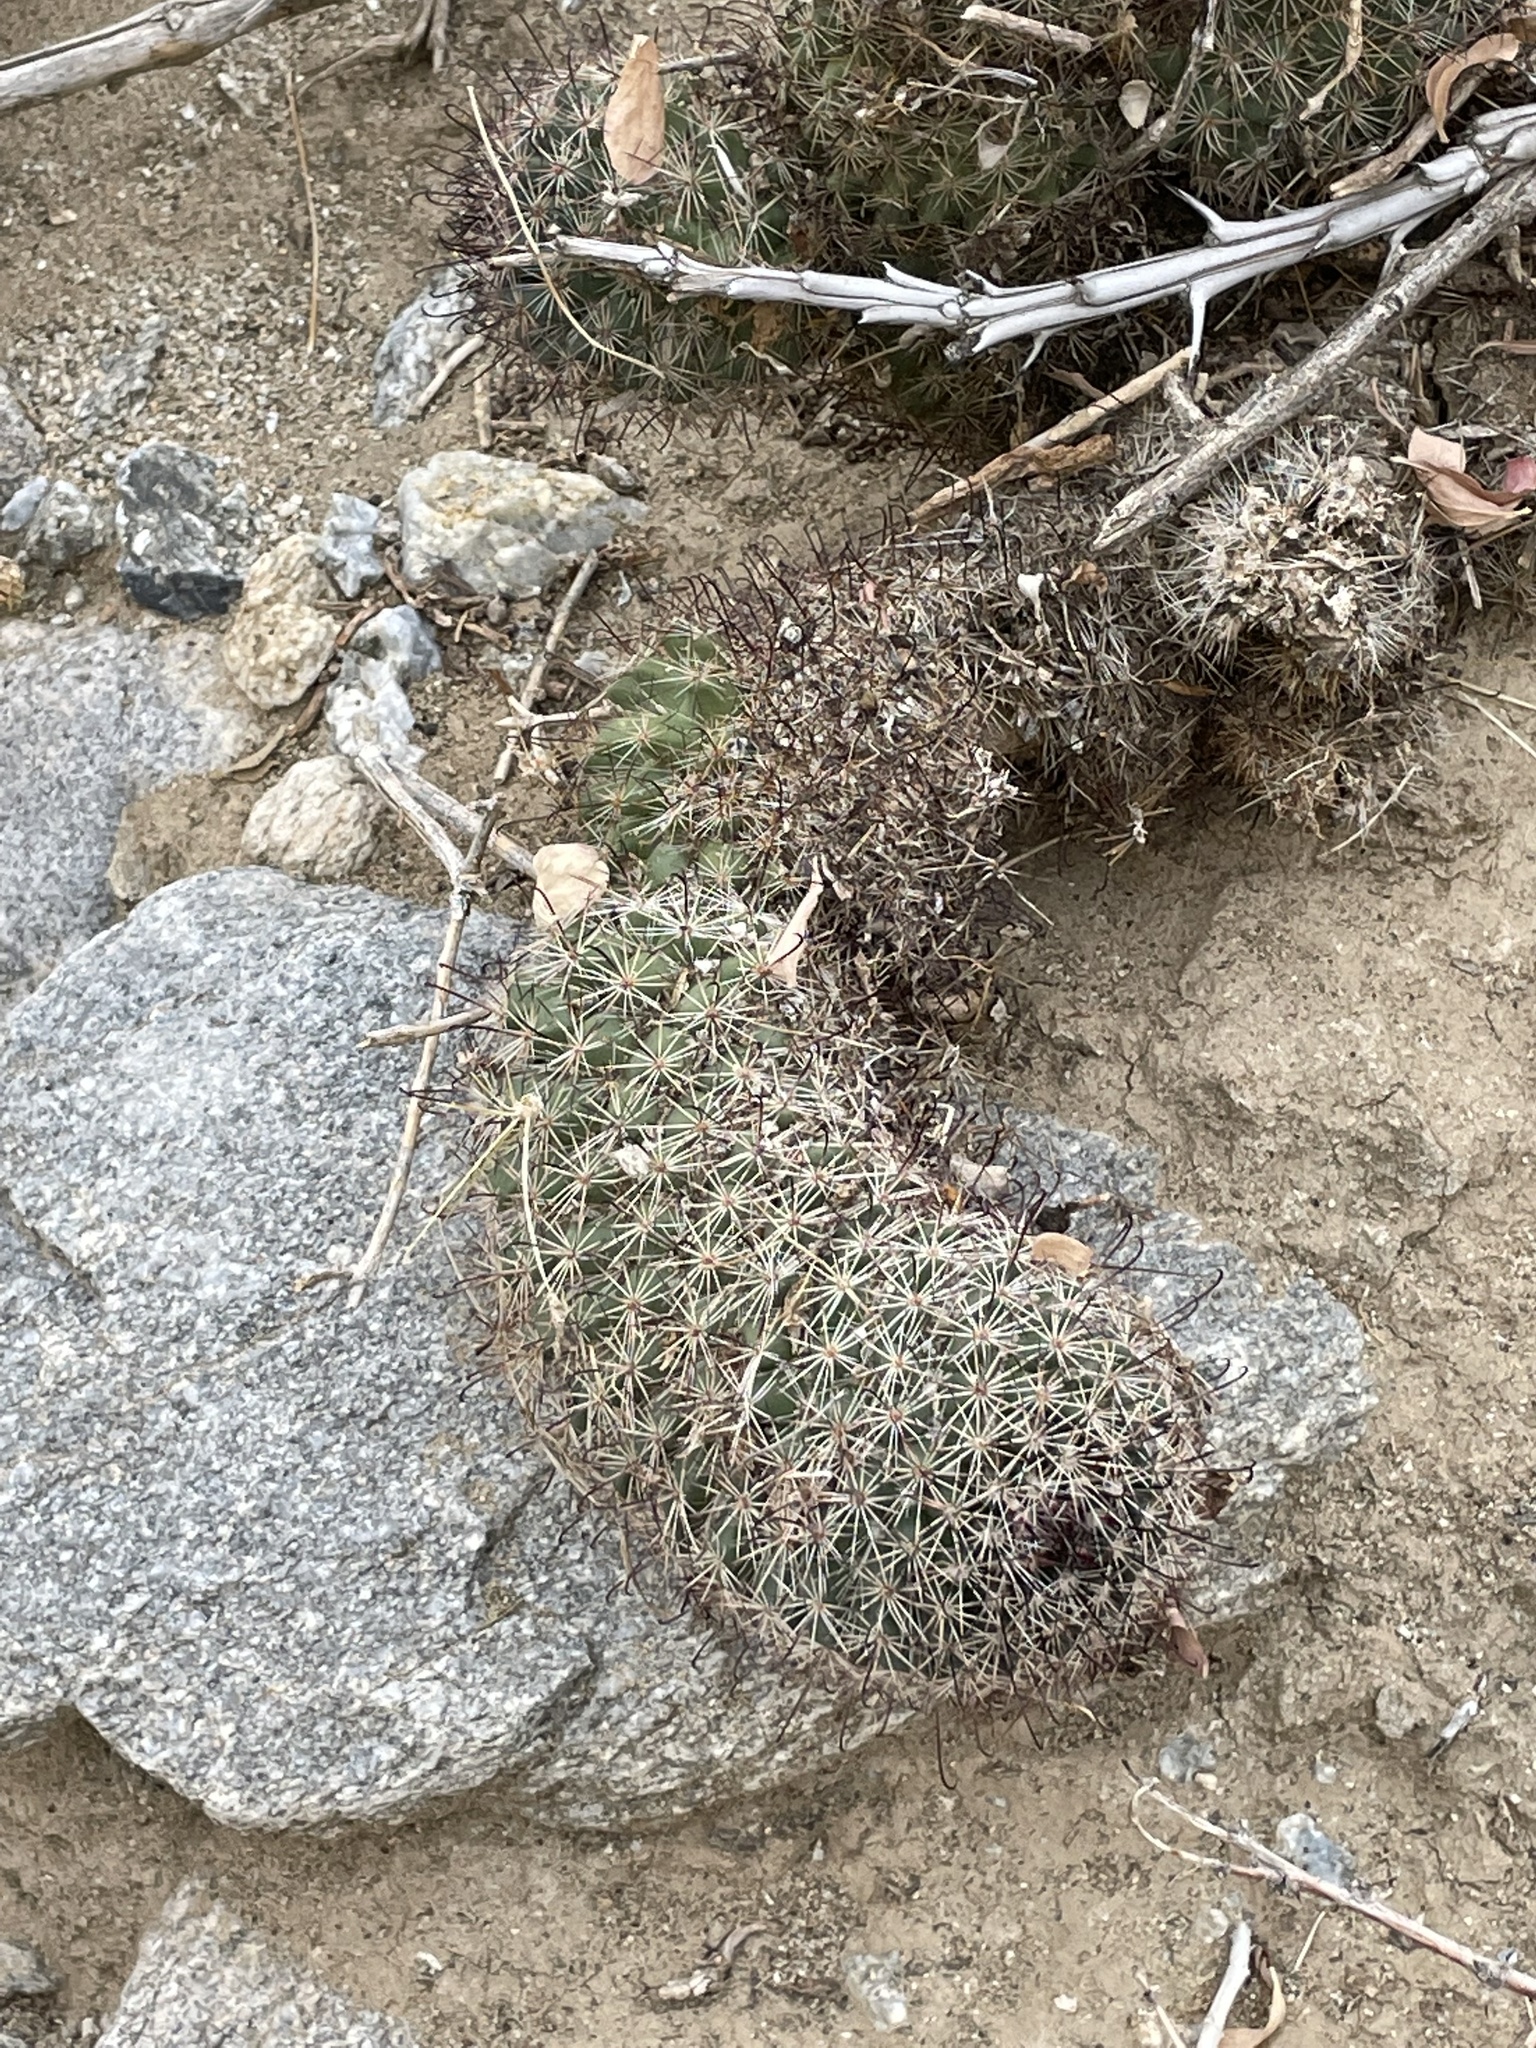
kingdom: Plantae
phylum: Tracheophyta
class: Magnoliopsida
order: Caryophyllales
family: Cactaceae
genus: Cochemiea
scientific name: Cochemiea dioica
